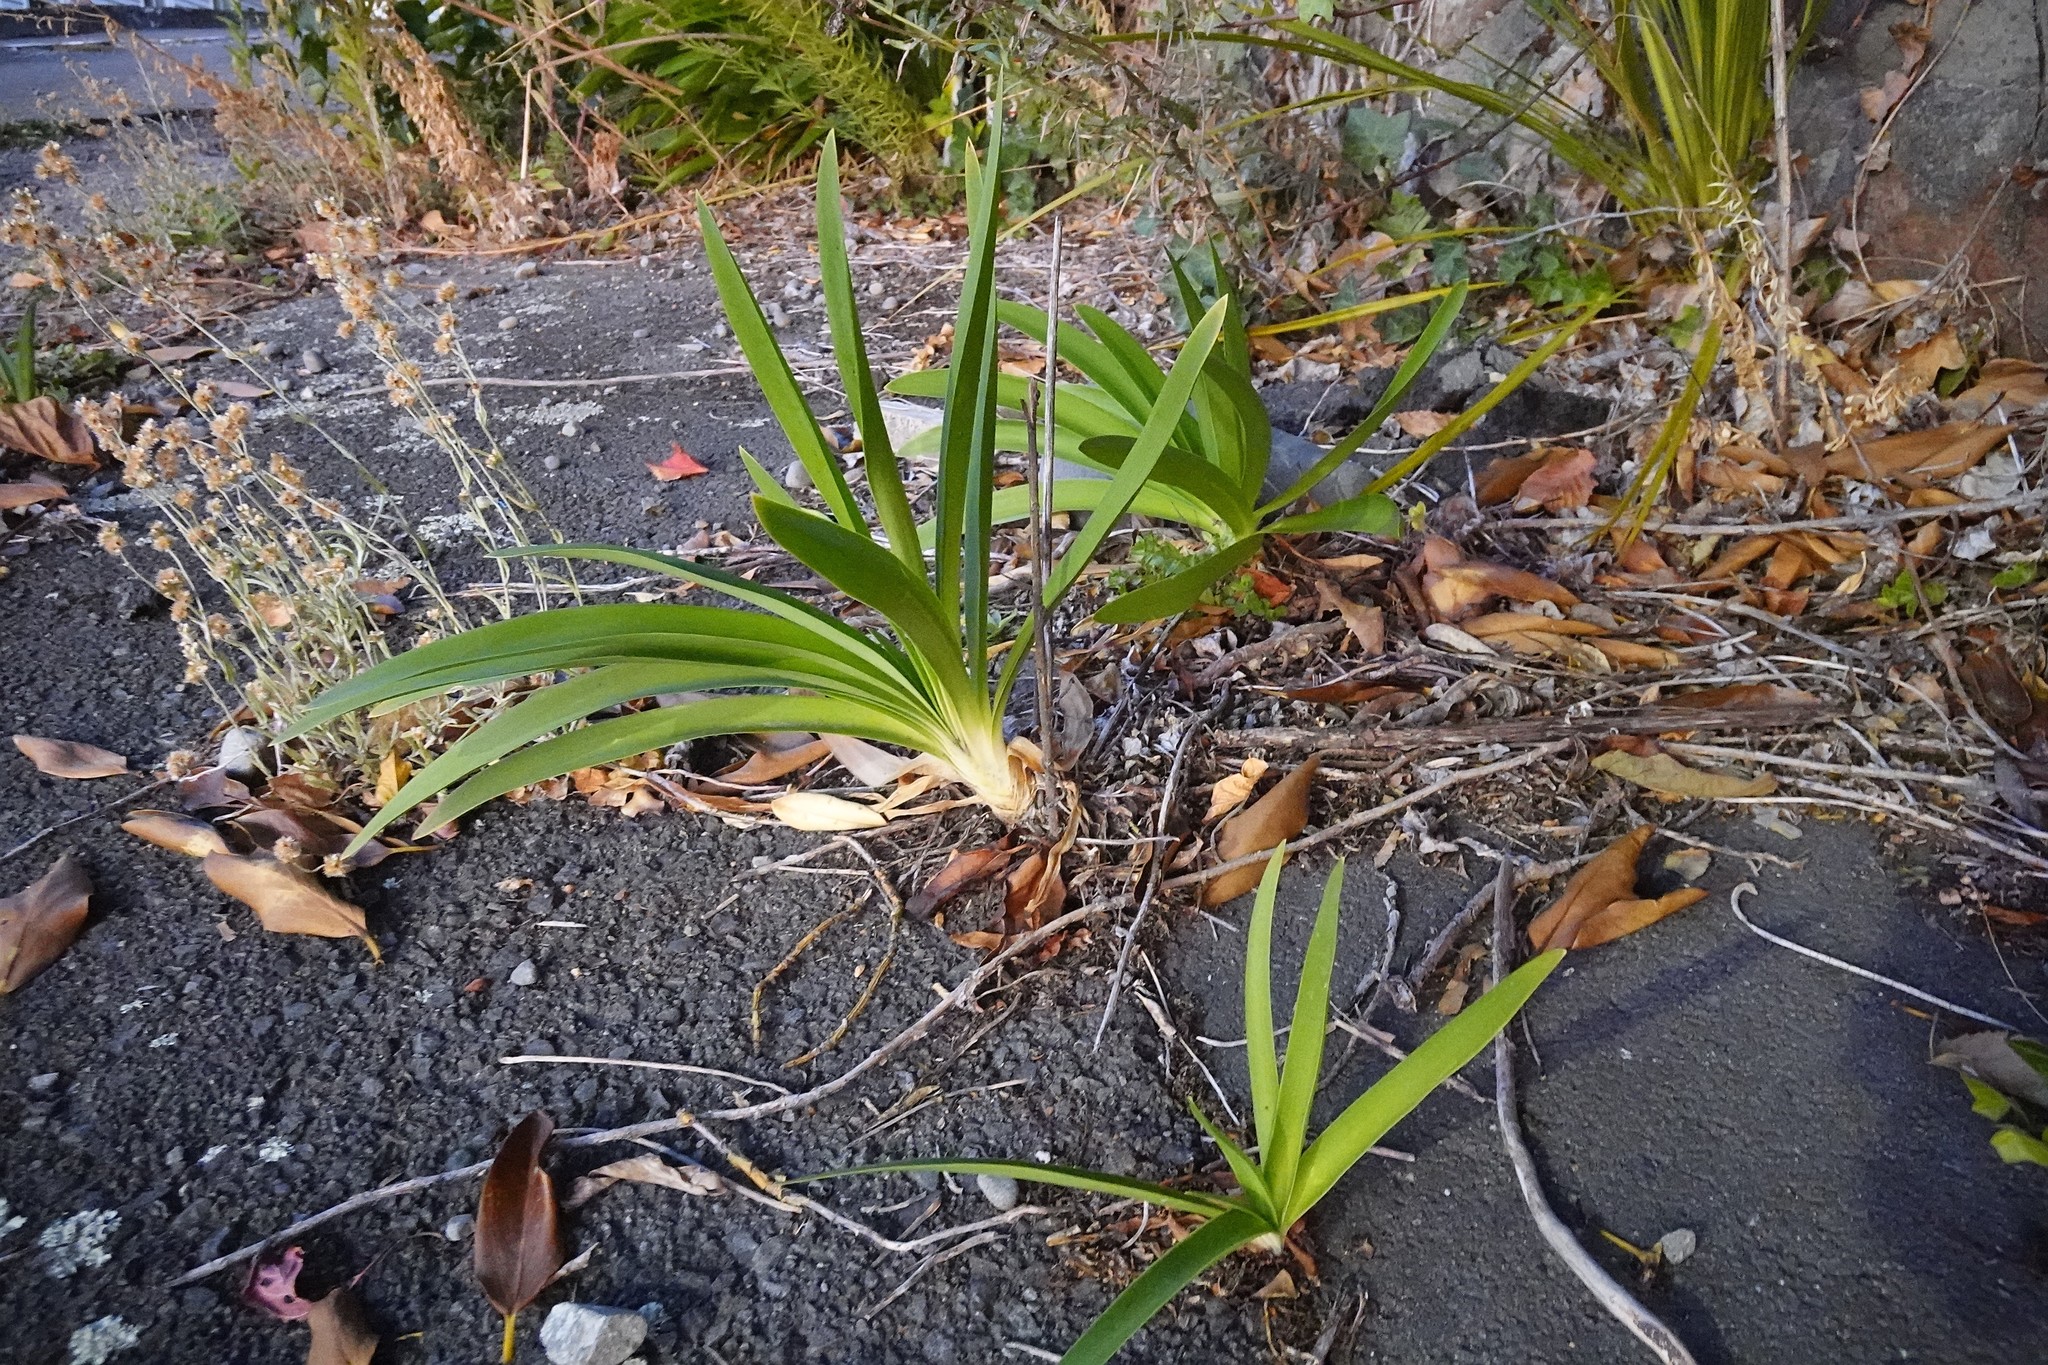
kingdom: Plantae
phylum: Tracheophyta
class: Liliopsida
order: Asparagales
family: Amaryllidaceae
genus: Agapanthus
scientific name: Agapanthus praecox
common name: African-lily
